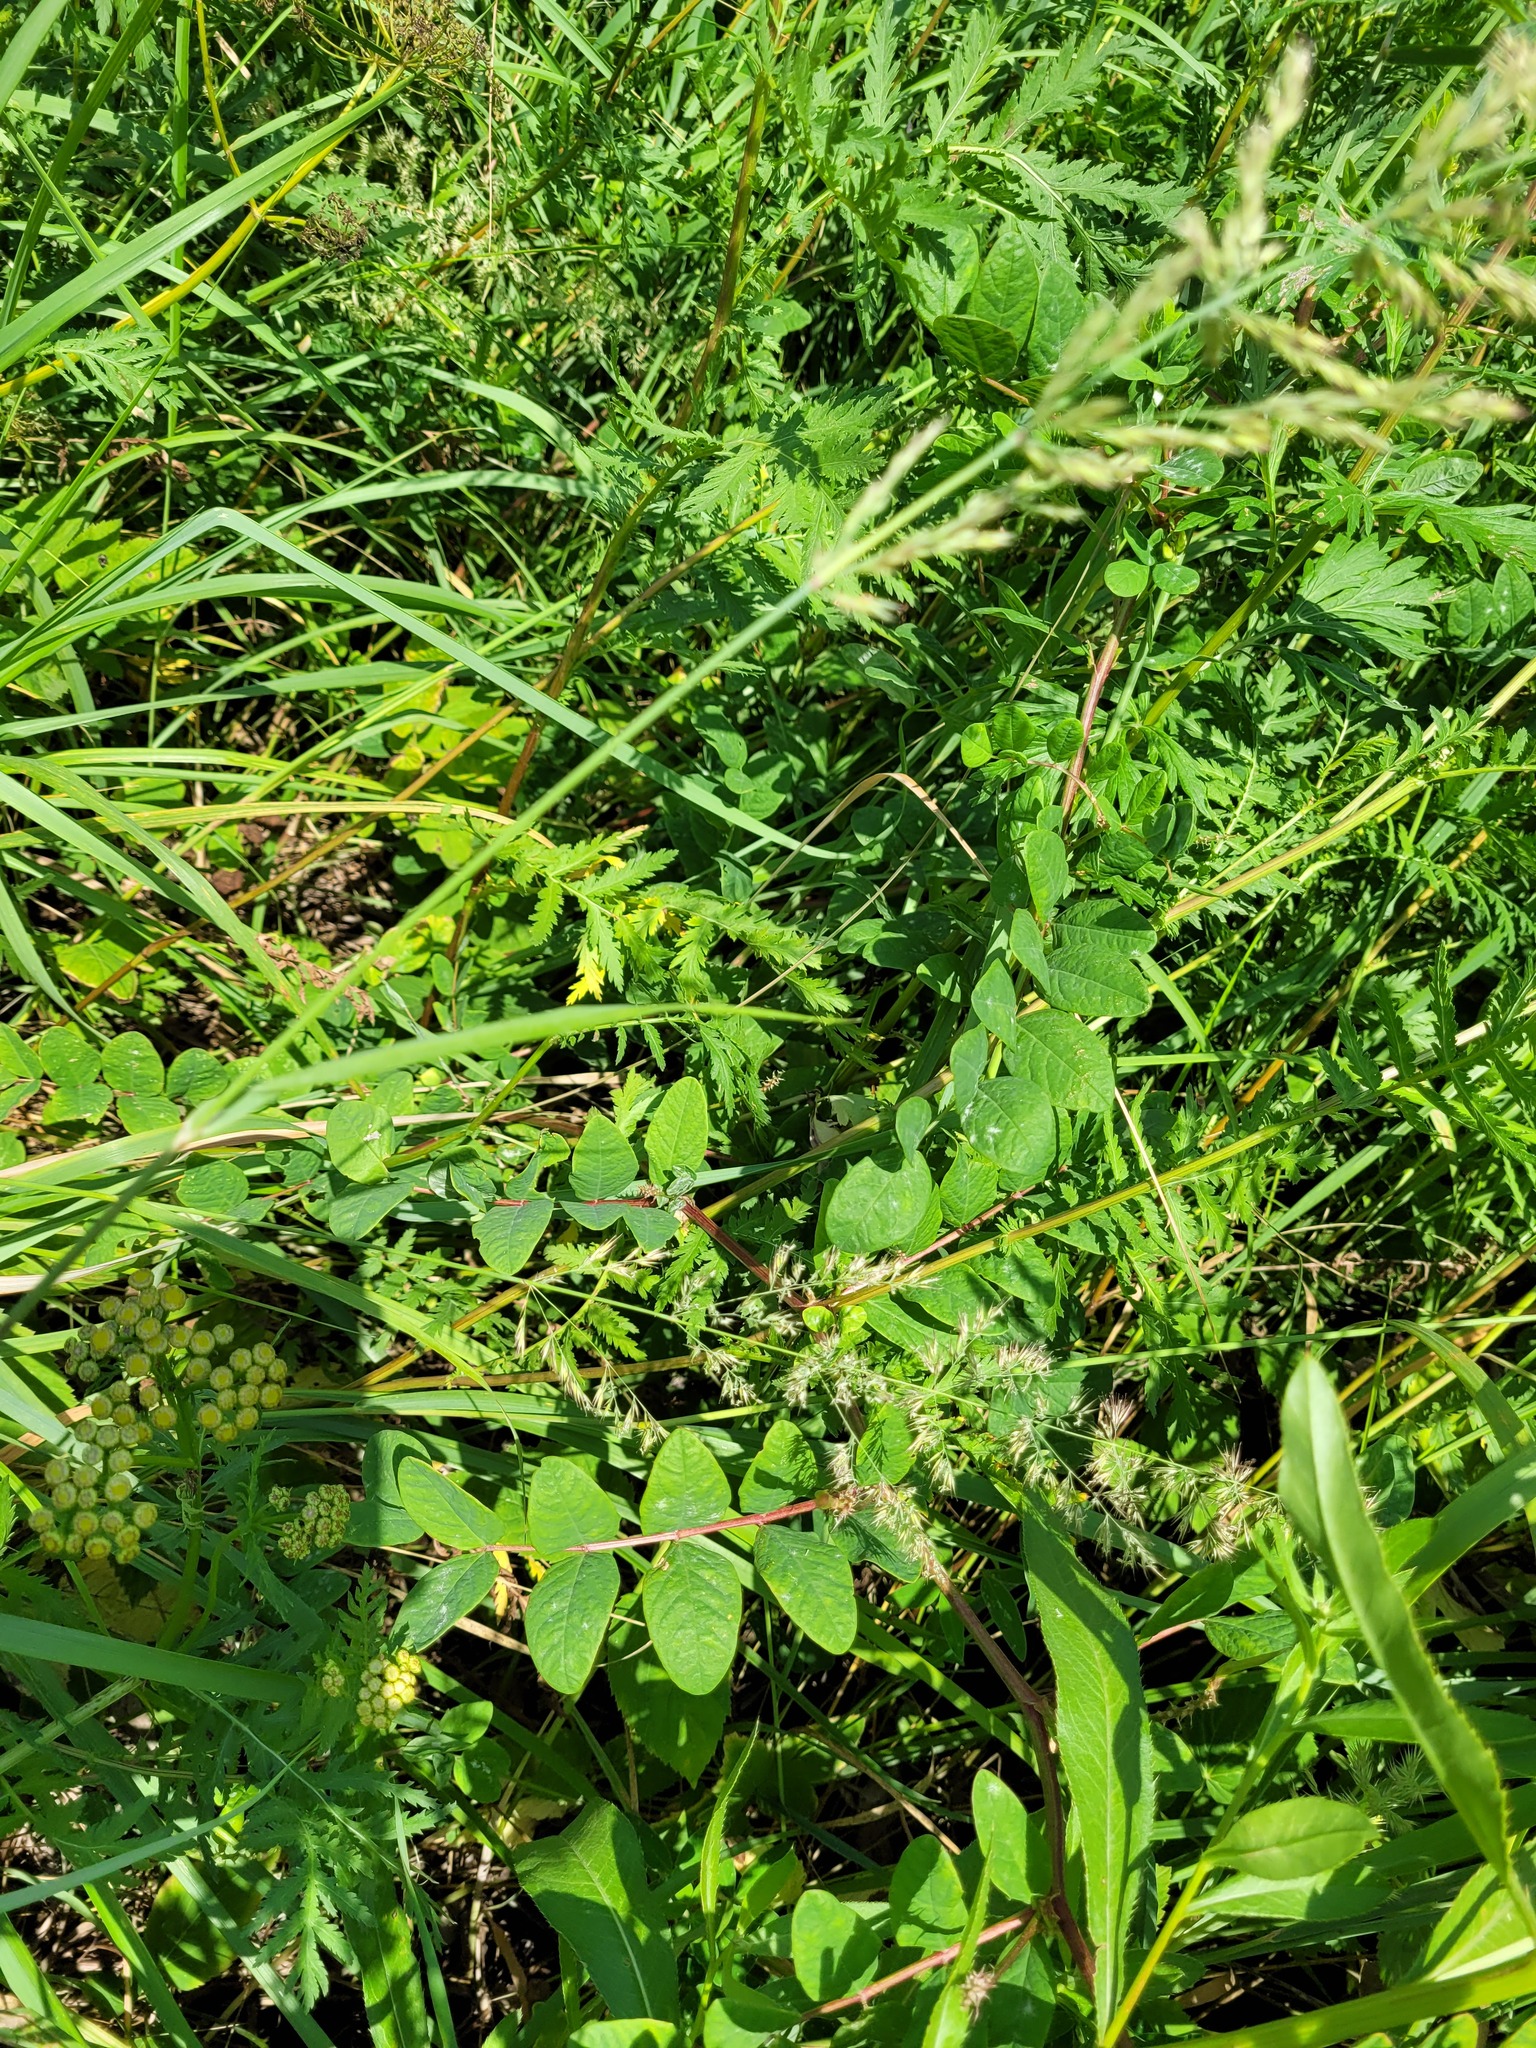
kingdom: Plantae
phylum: Tracheophyta
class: Magnoliopsida
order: Fabales
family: Fabaceae
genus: Astragalus
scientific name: Astragalus glycyphyllos
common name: Wild liquorice
